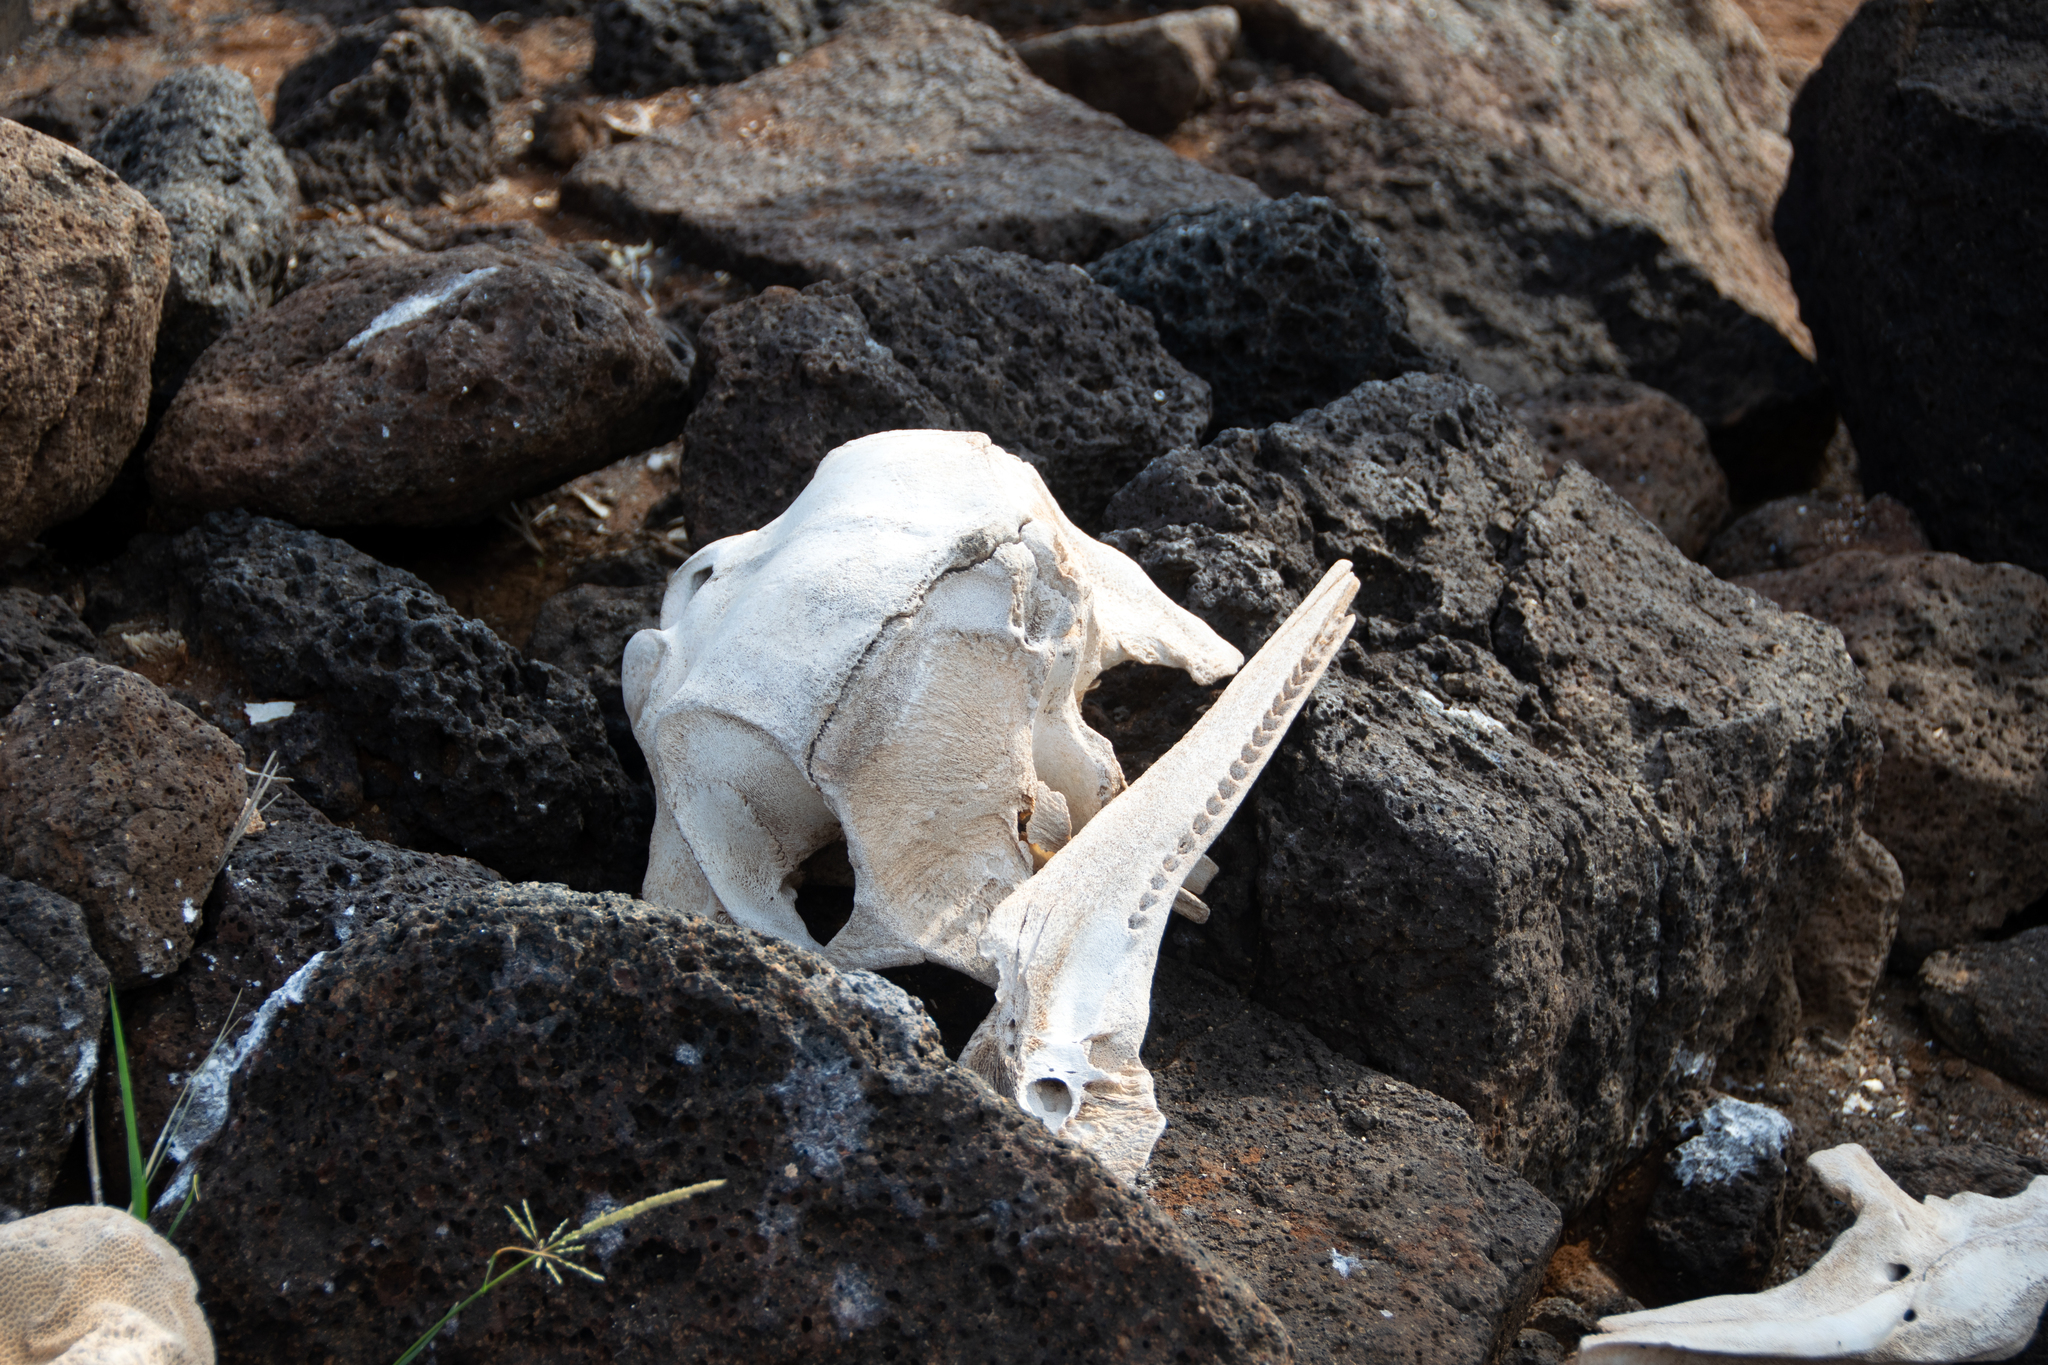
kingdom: Animalia
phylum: Chordata
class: Mammalia
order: Cetacea
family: Delphinidae
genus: Tursiops
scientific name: Tursiops truncatus
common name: Bottlenose dolphin
